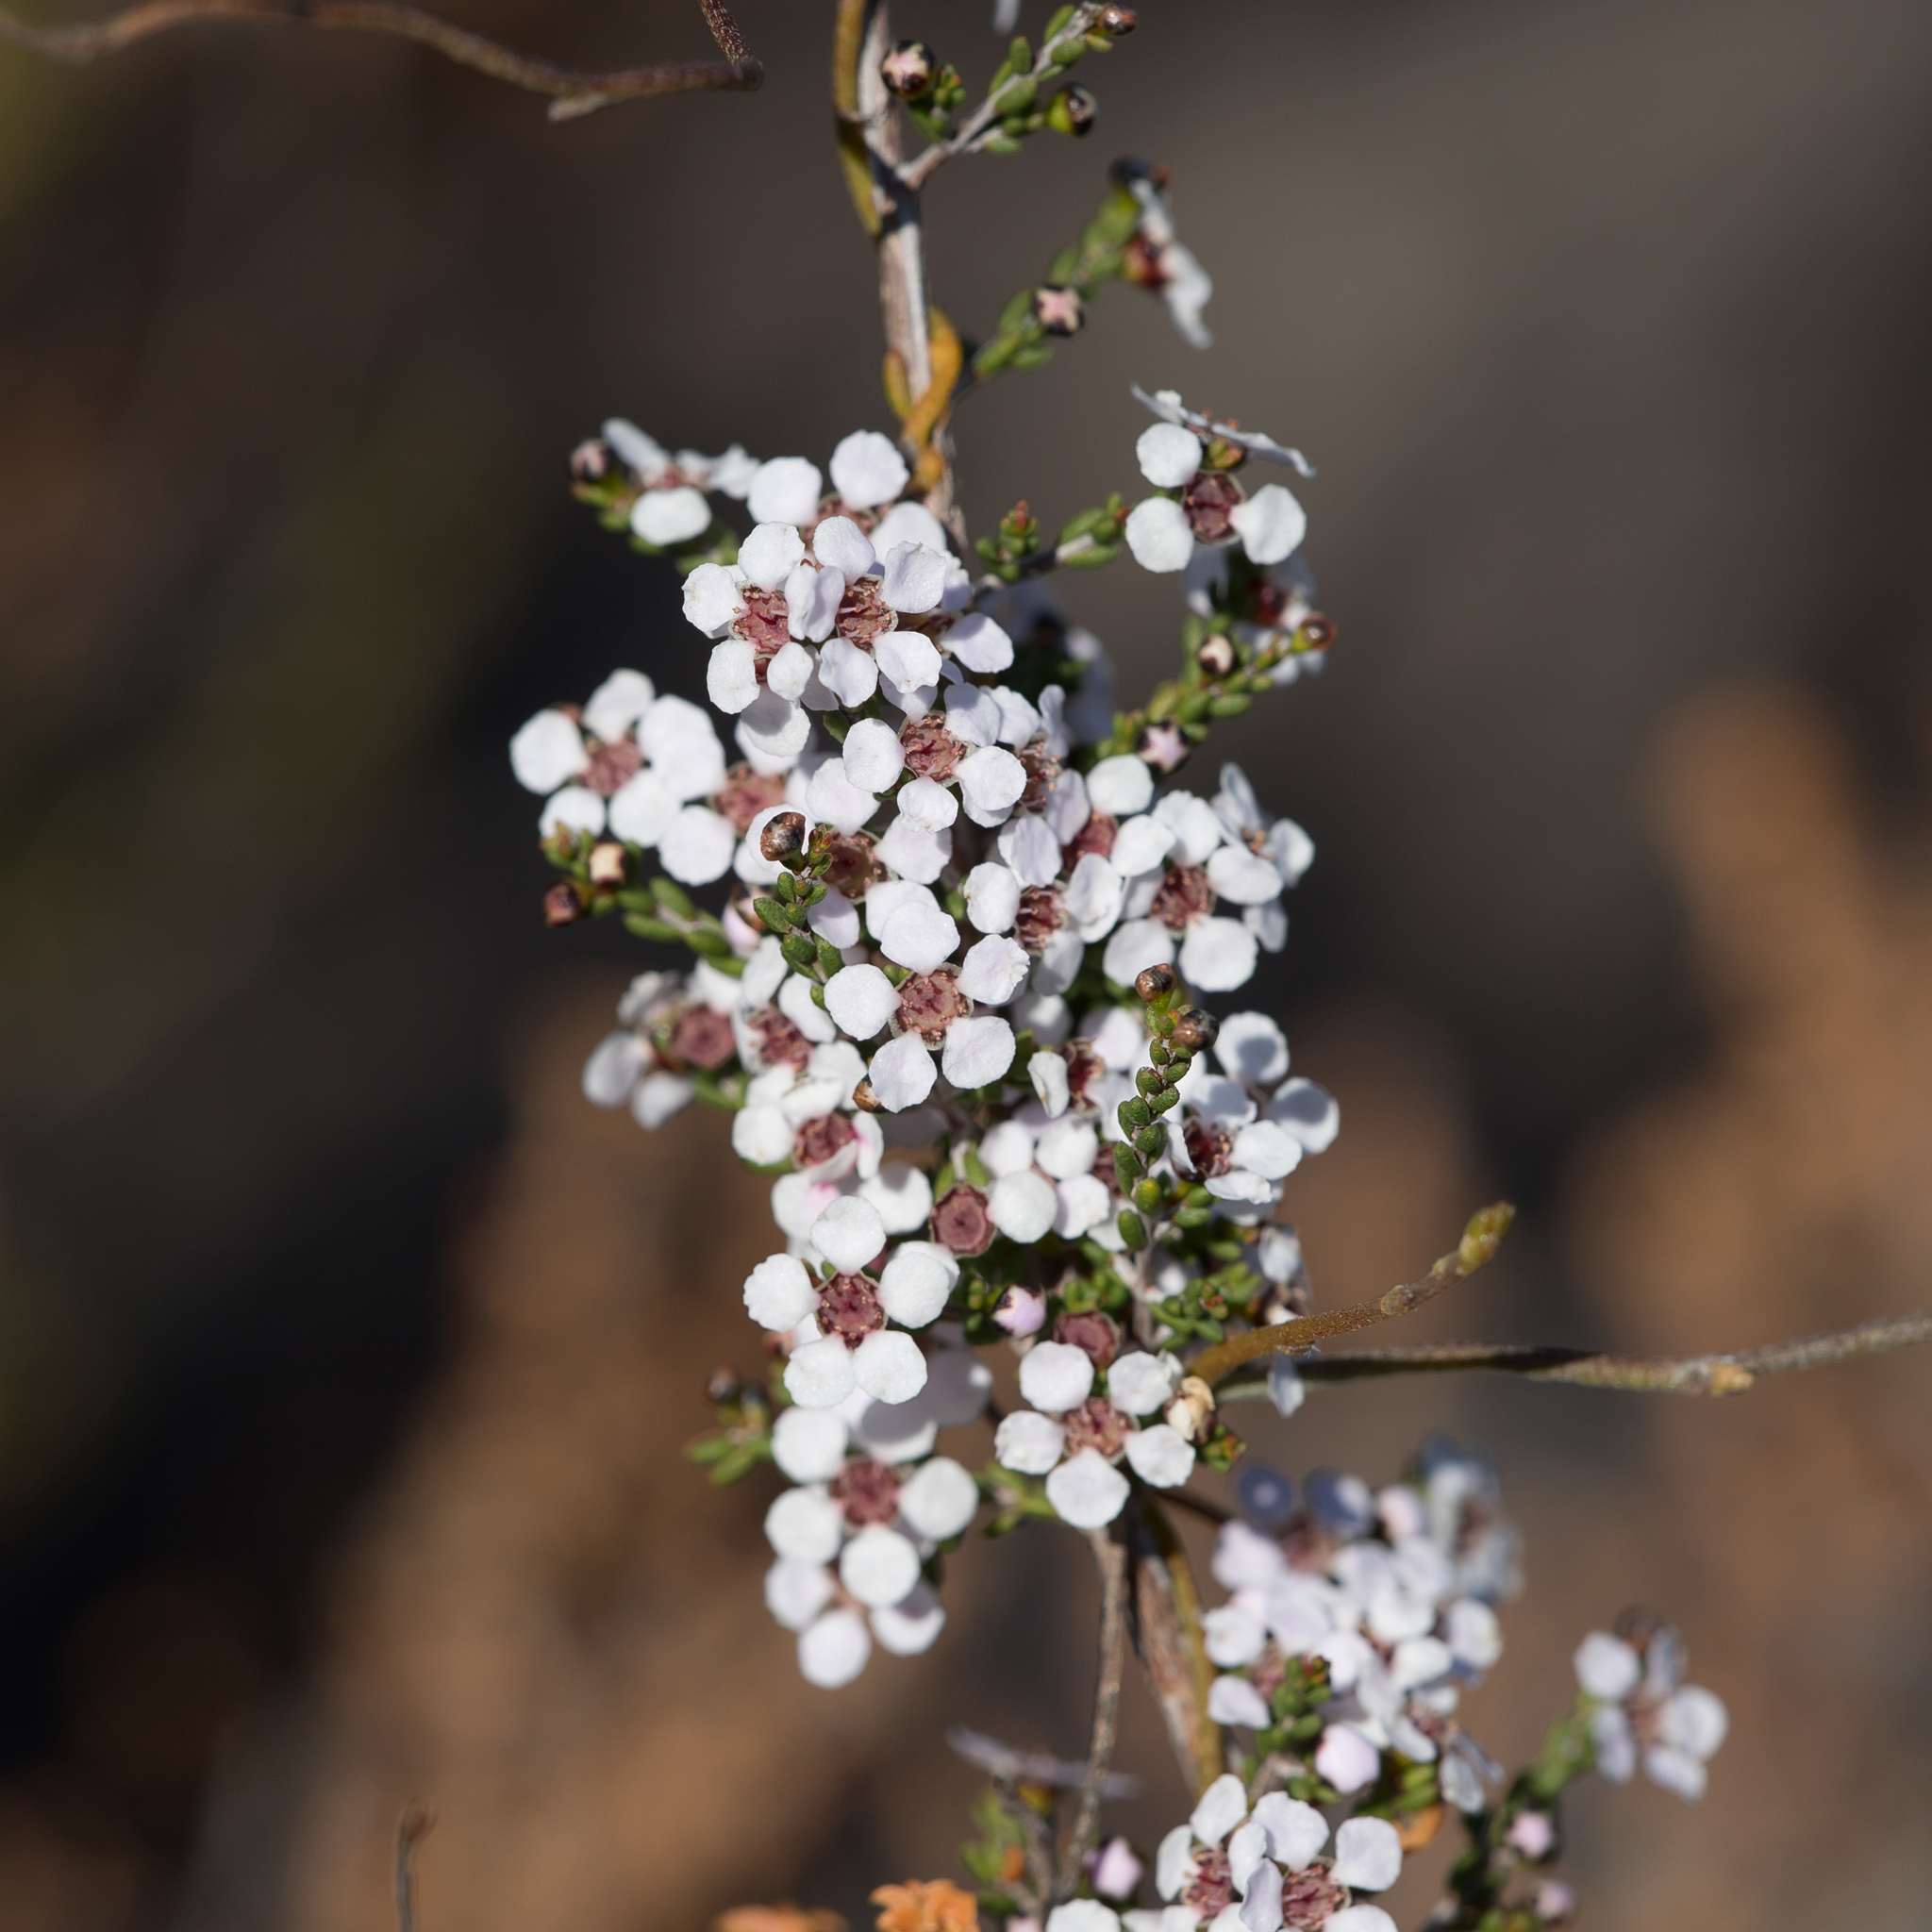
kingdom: Plantae
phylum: Tracheophyta
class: Magnoliopsida
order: Myrtales
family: Myrtaceae
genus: Rinzia
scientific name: Rinzia orientalis
